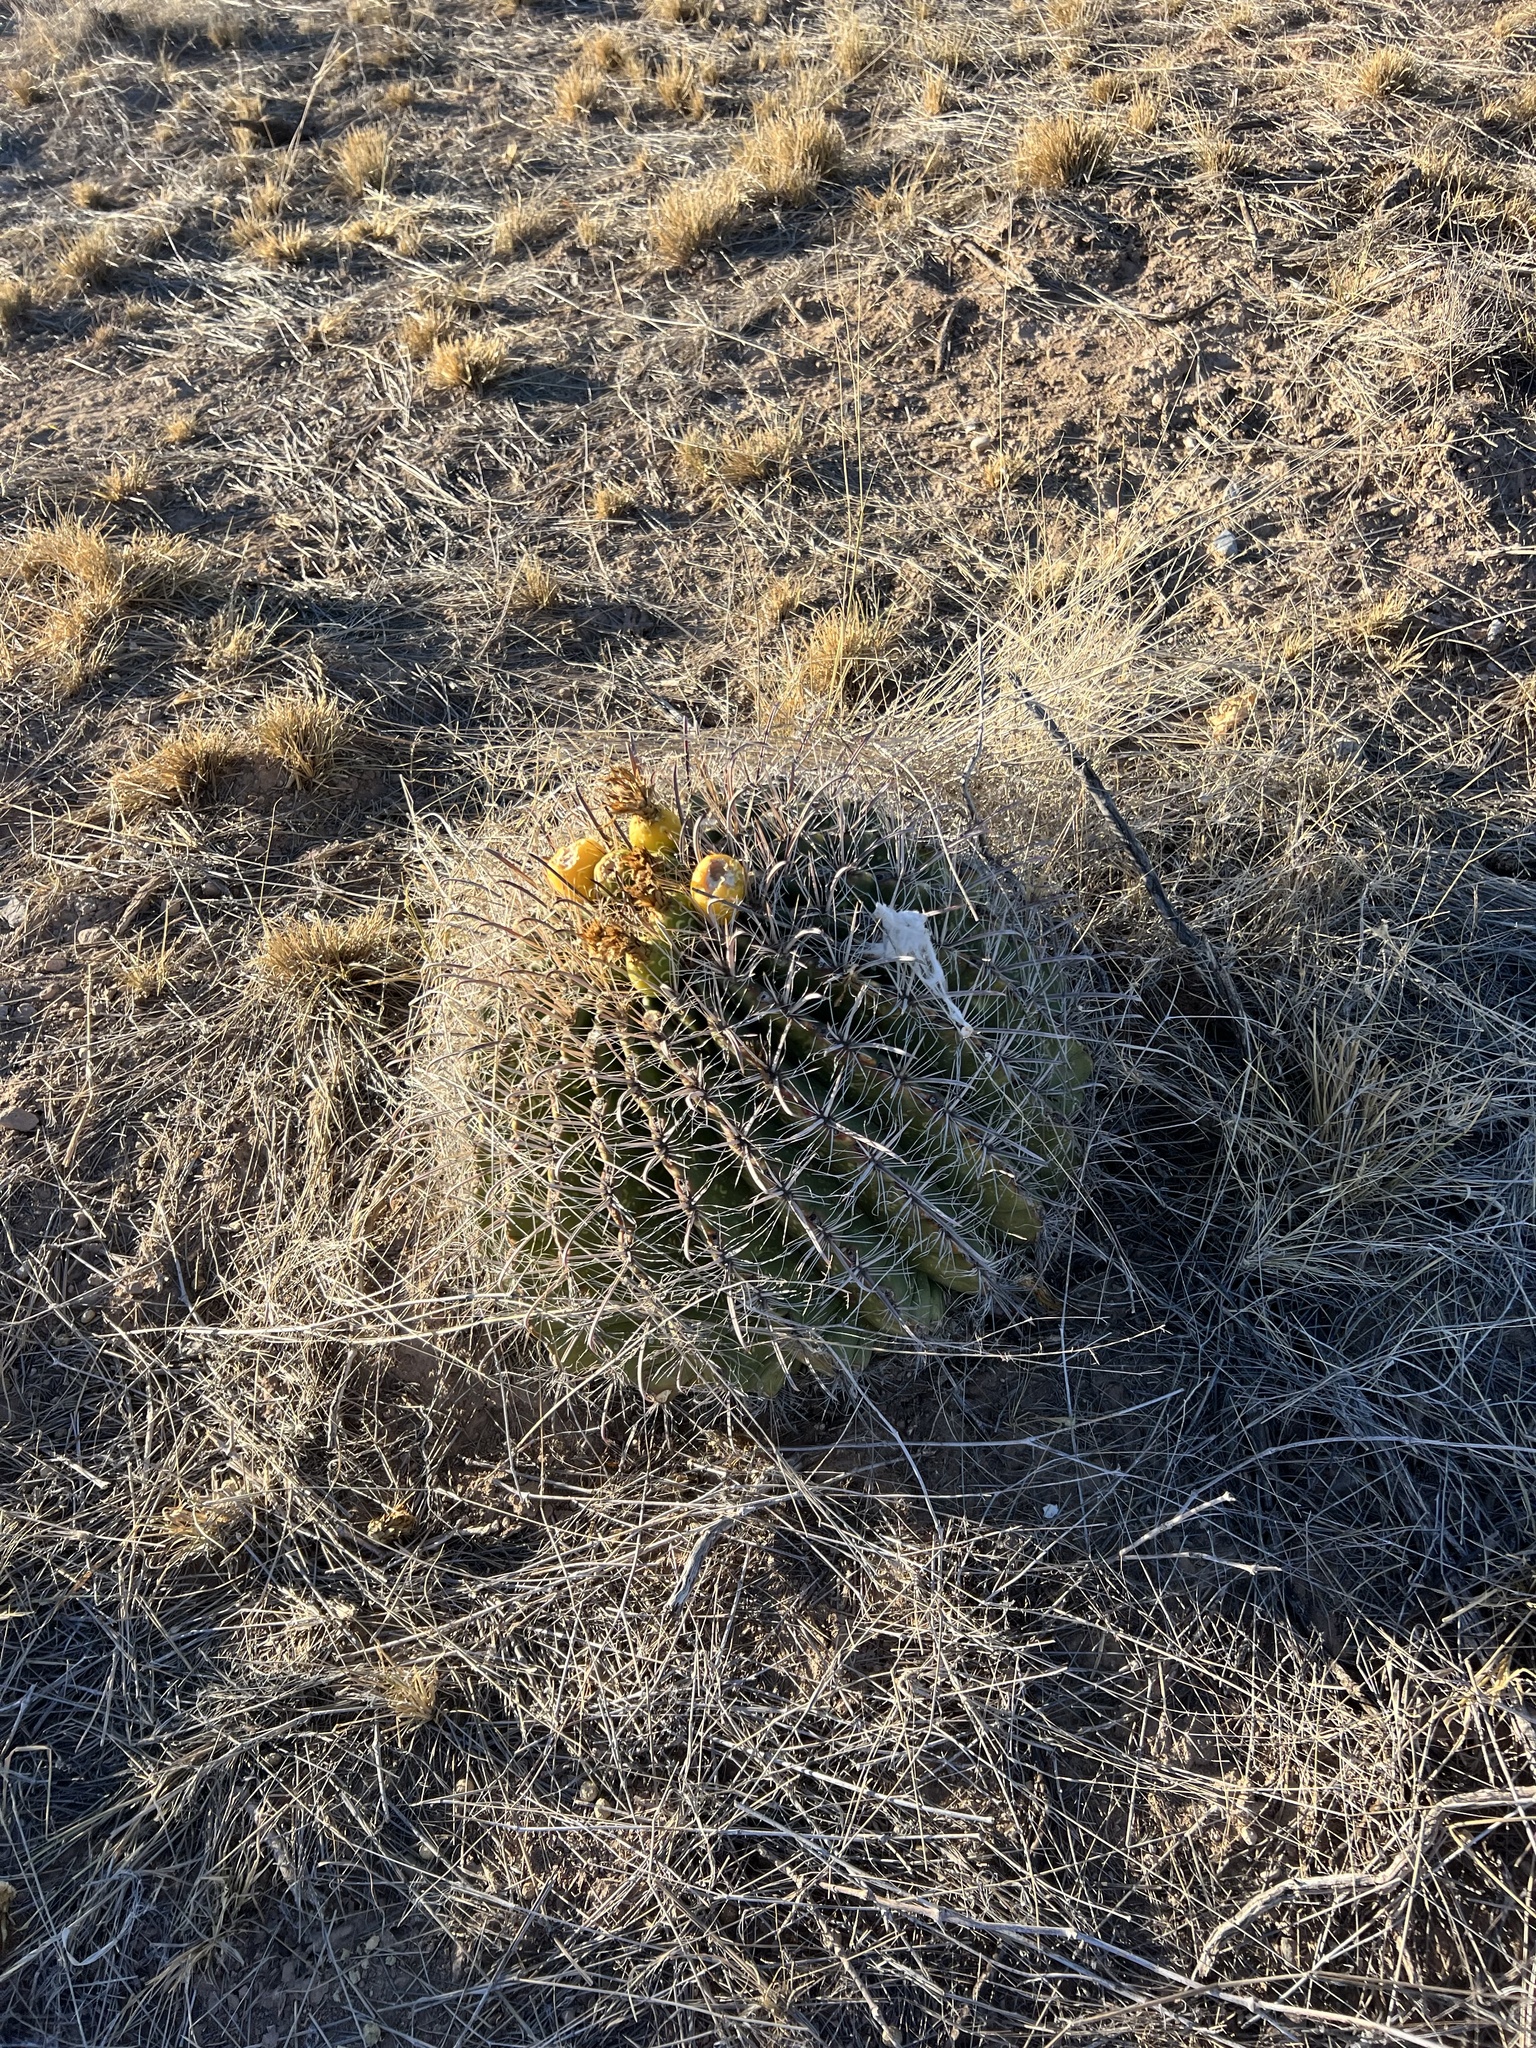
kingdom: Plantae
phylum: Tracheophyta
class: Magnoliopsida
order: Caryophyllales
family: Cactaceae
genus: Ferocactus
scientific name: Ferocactus wislizeni
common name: Candy barrel cactus
